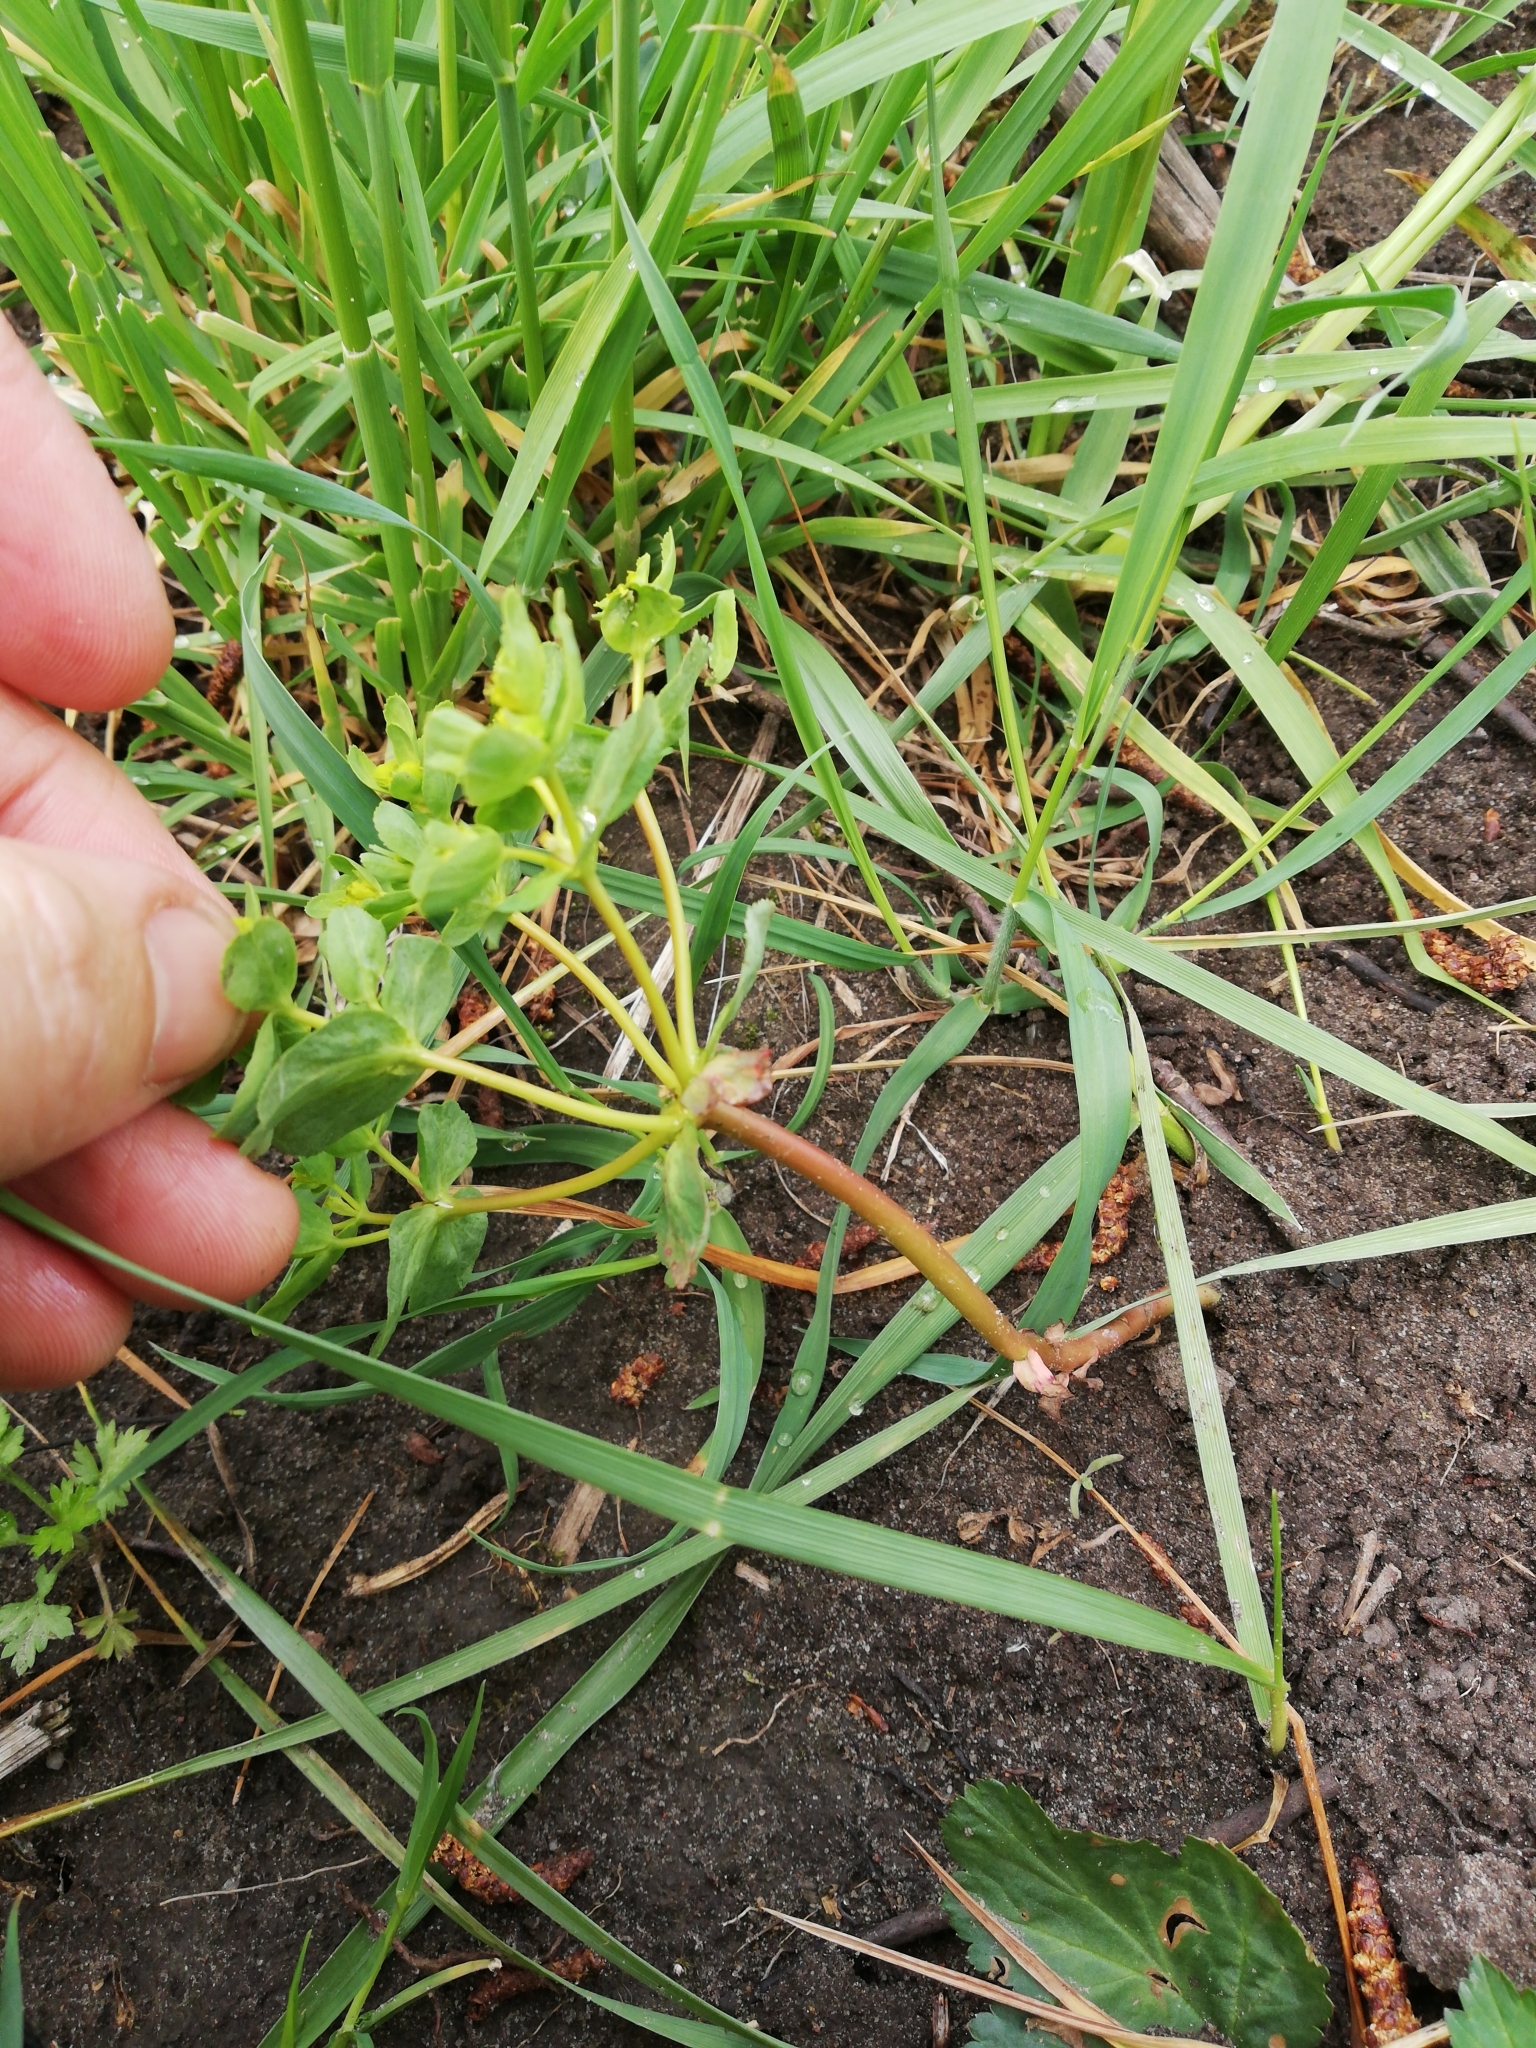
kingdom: Plantae
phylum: Tracheophyta
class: Magnoliopsida
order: Malpighiales
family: Euphorbiaceae
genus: Euphorbia
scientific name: Euphorbia helioscopia
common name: Sun spurge
